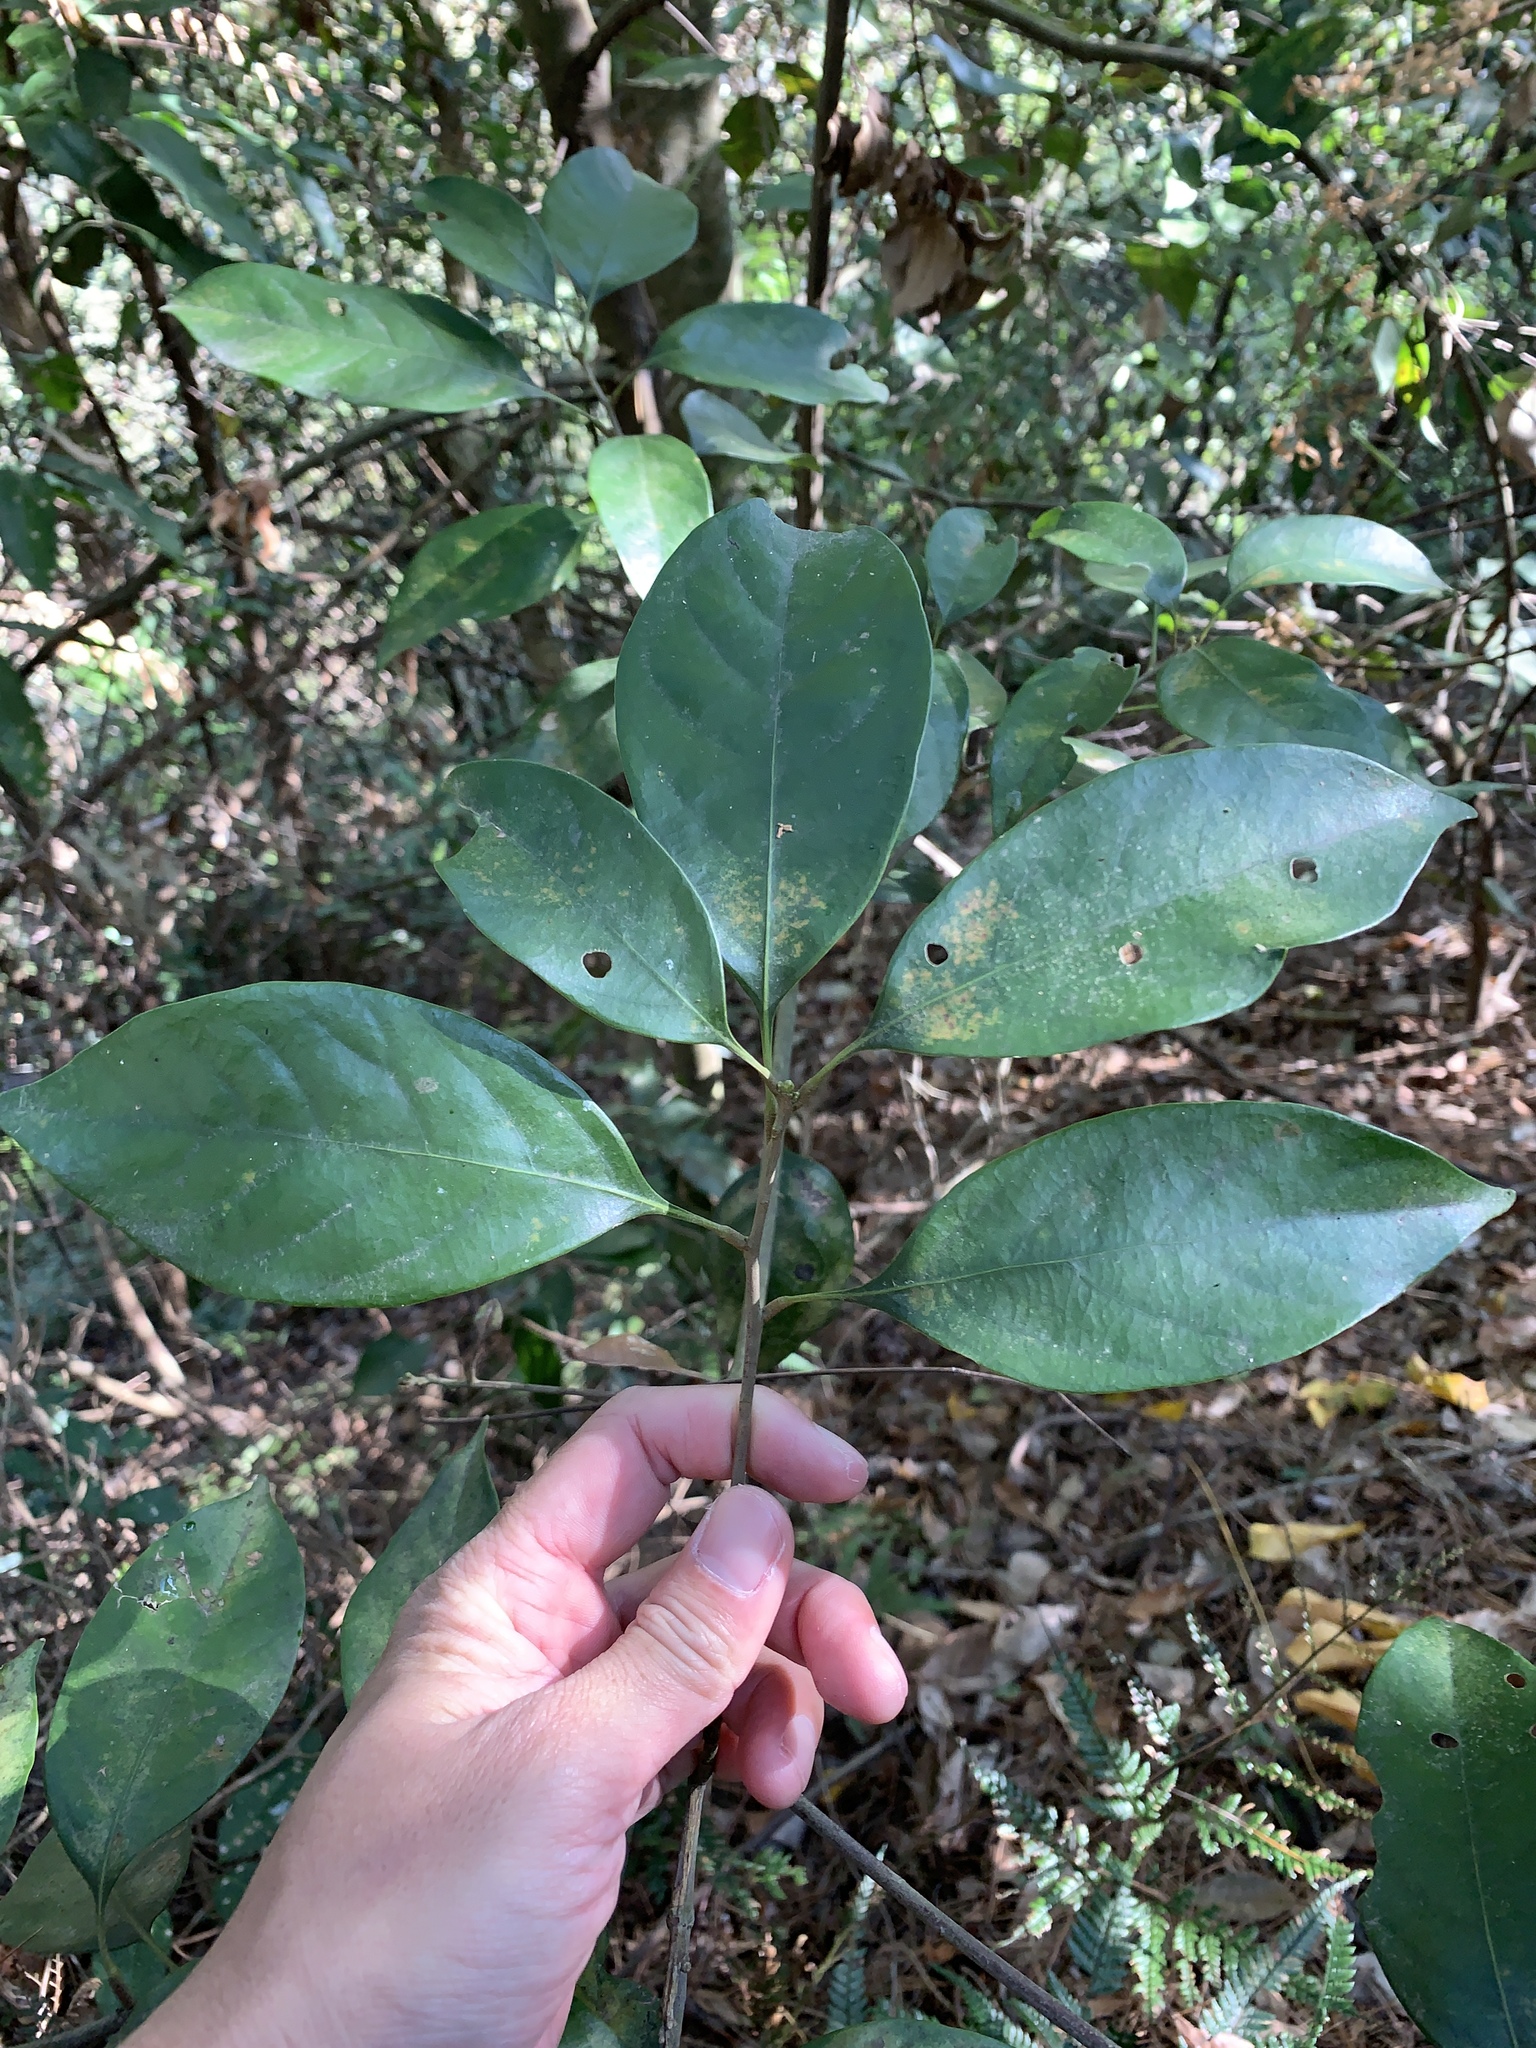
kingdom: Plantae
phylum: Tracheophyta
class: Magnoliopsida
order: Fagales
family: Fagaceae
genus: Lithocarpus
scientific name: Lithocarpus taitoensis
